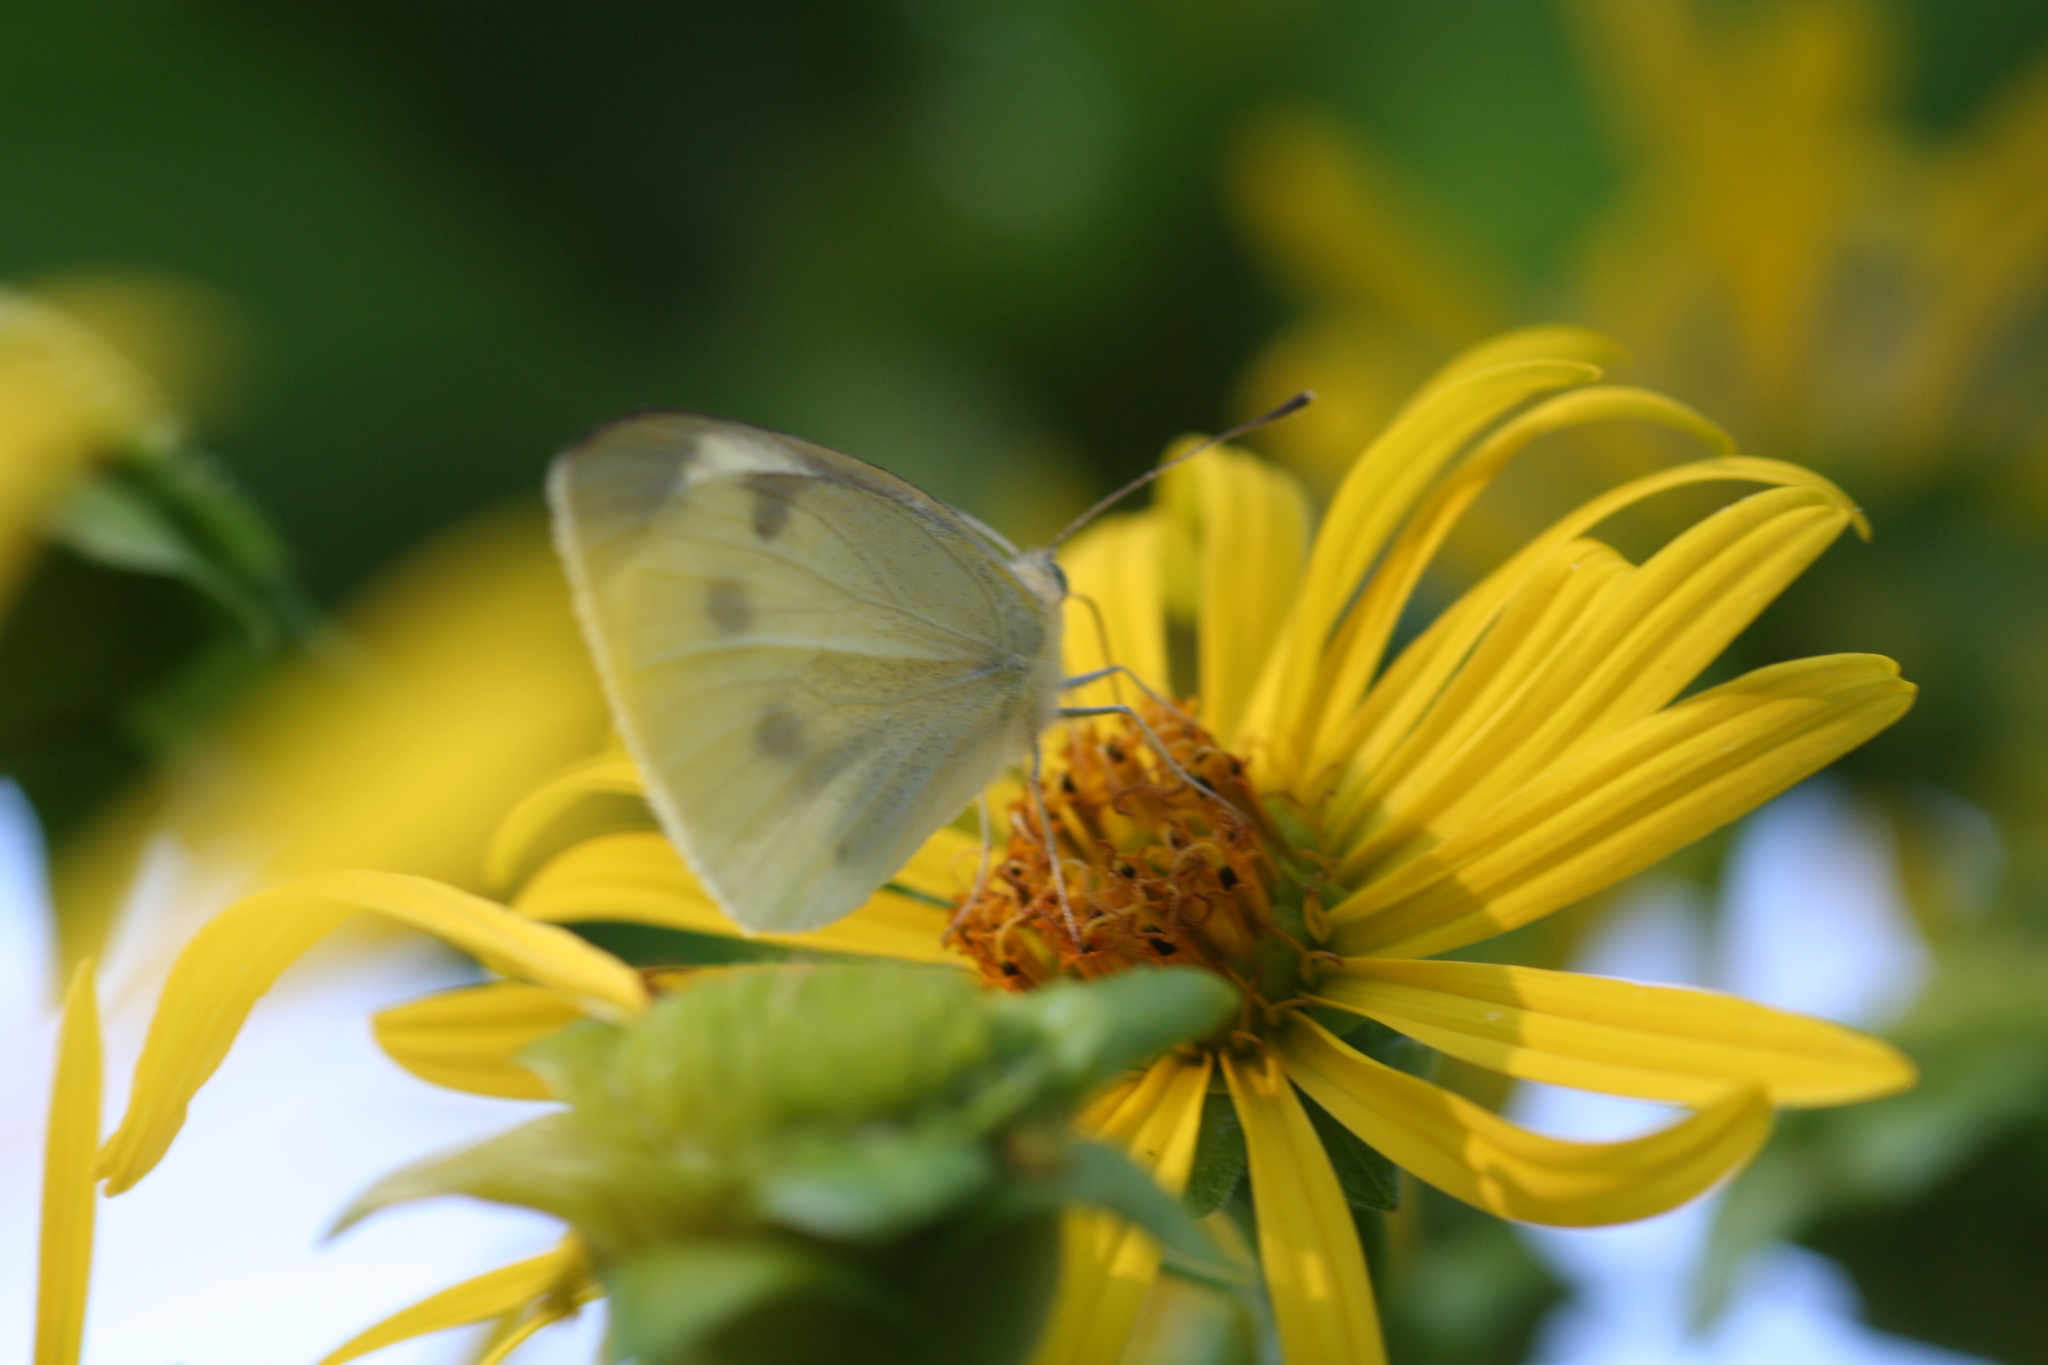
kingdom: Animalia
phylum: Arthropoda
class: Insecta
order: Lepidoptera
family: Pieridae
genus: Pieris
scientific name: Pieris rapae
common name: Small white
